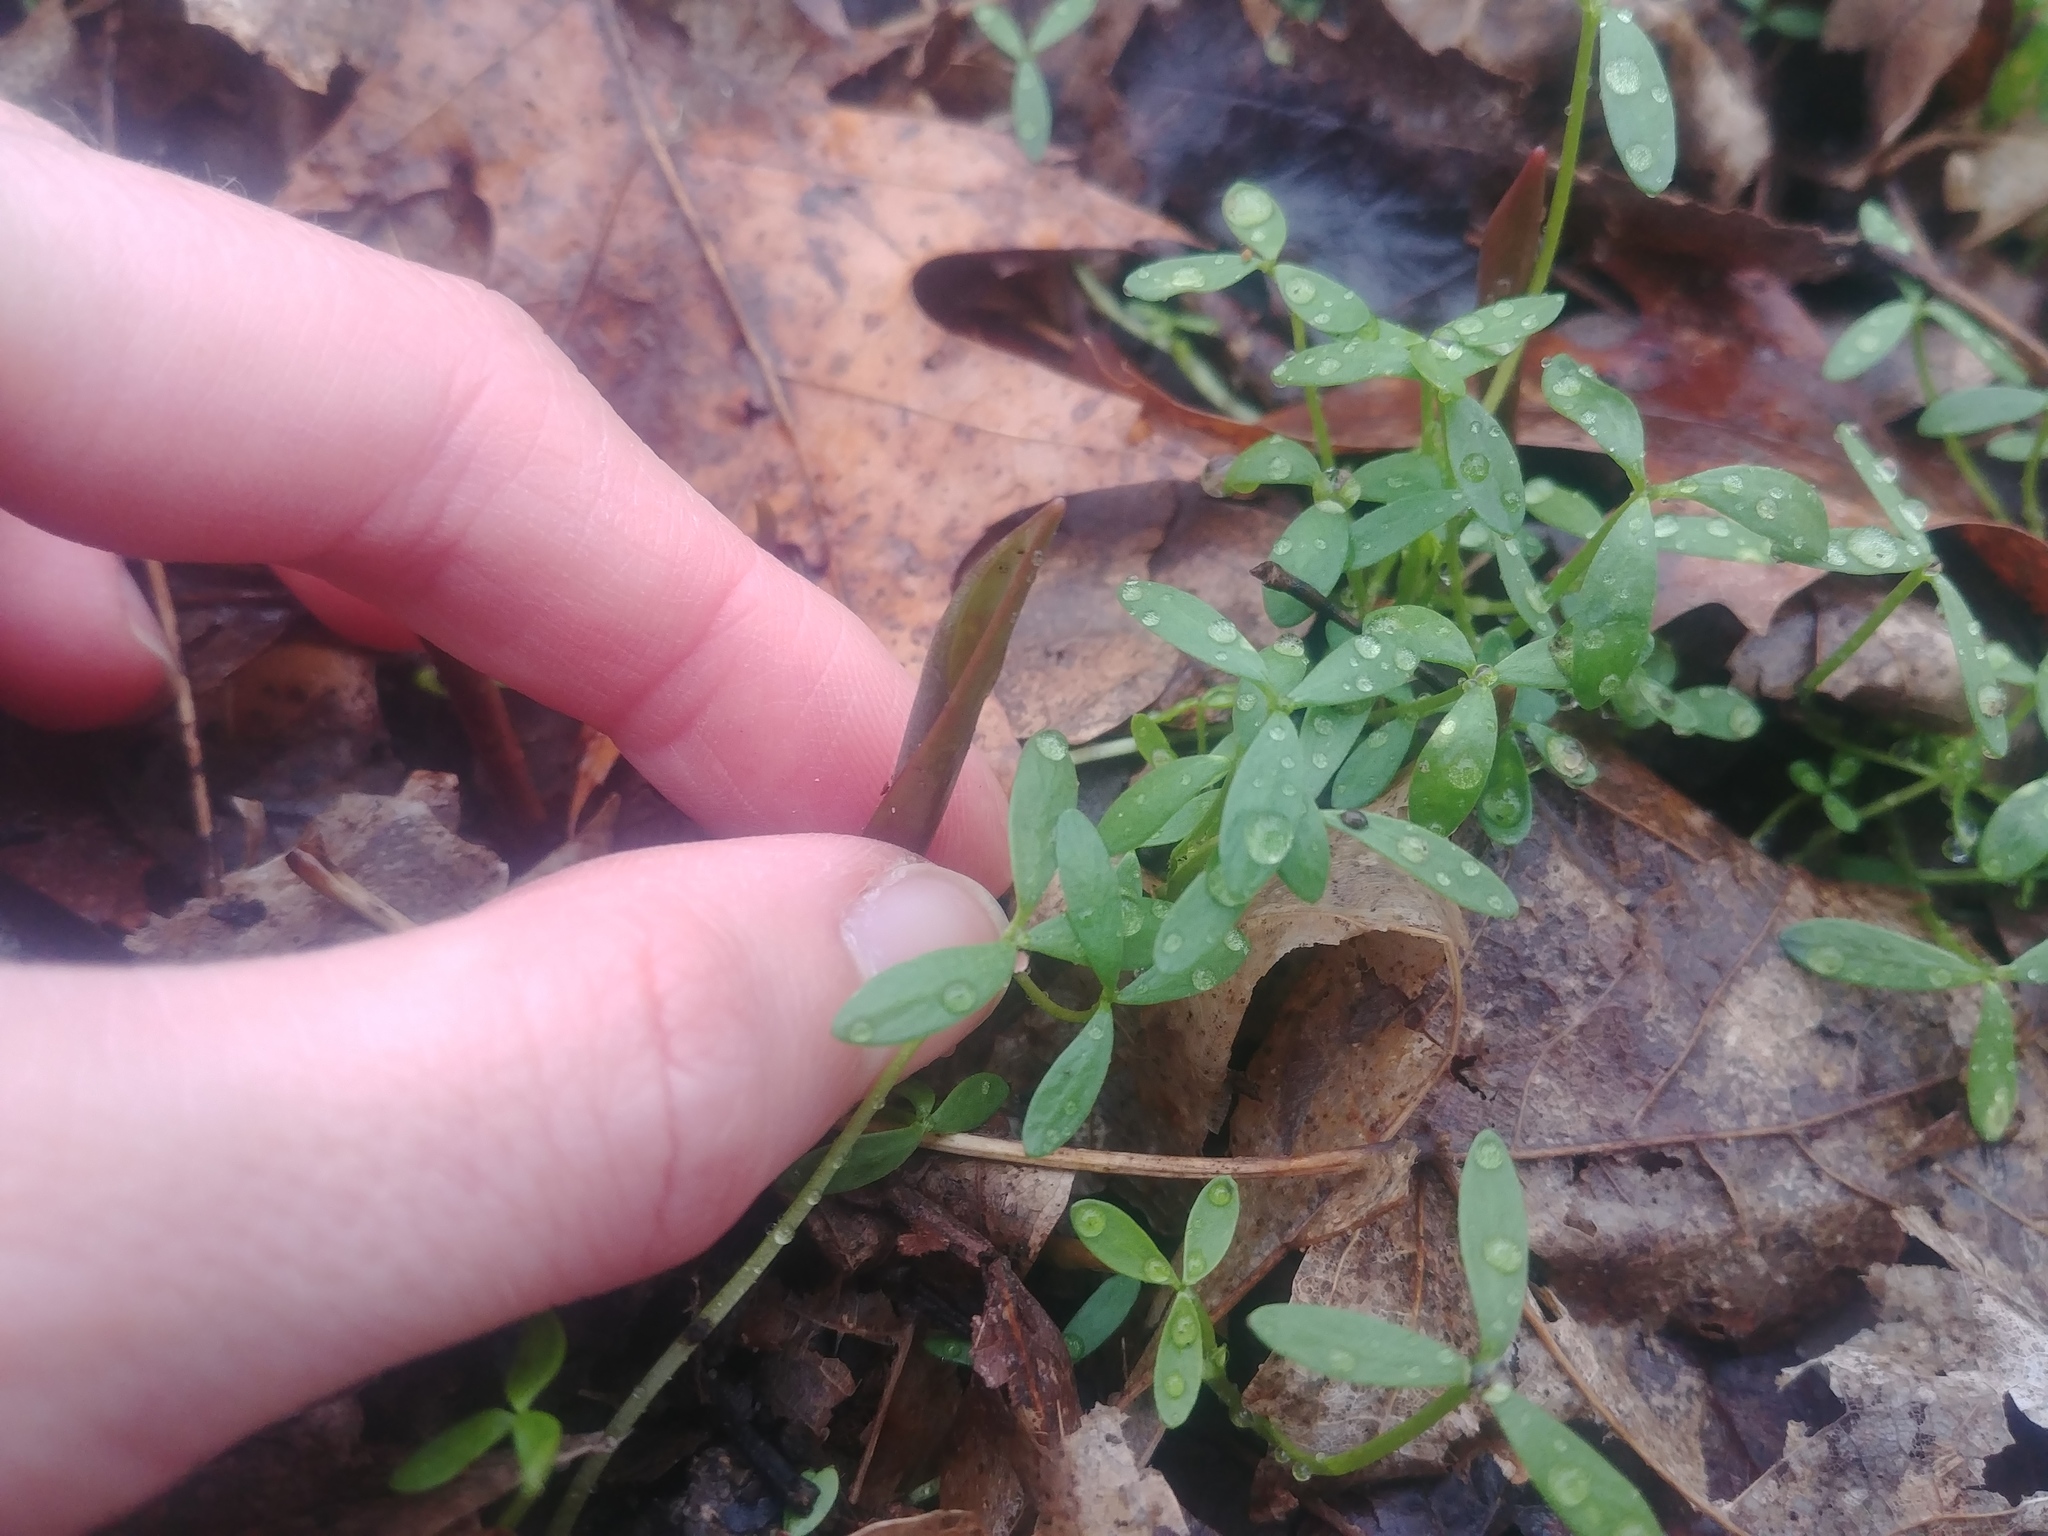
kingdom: Plantae
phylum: Tracheophyta
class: Magnoliopsida
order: Brassicales
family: Limnanthaceae
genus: Floerkea
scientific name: Floerkea proserpinacoides
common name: False mermaid
